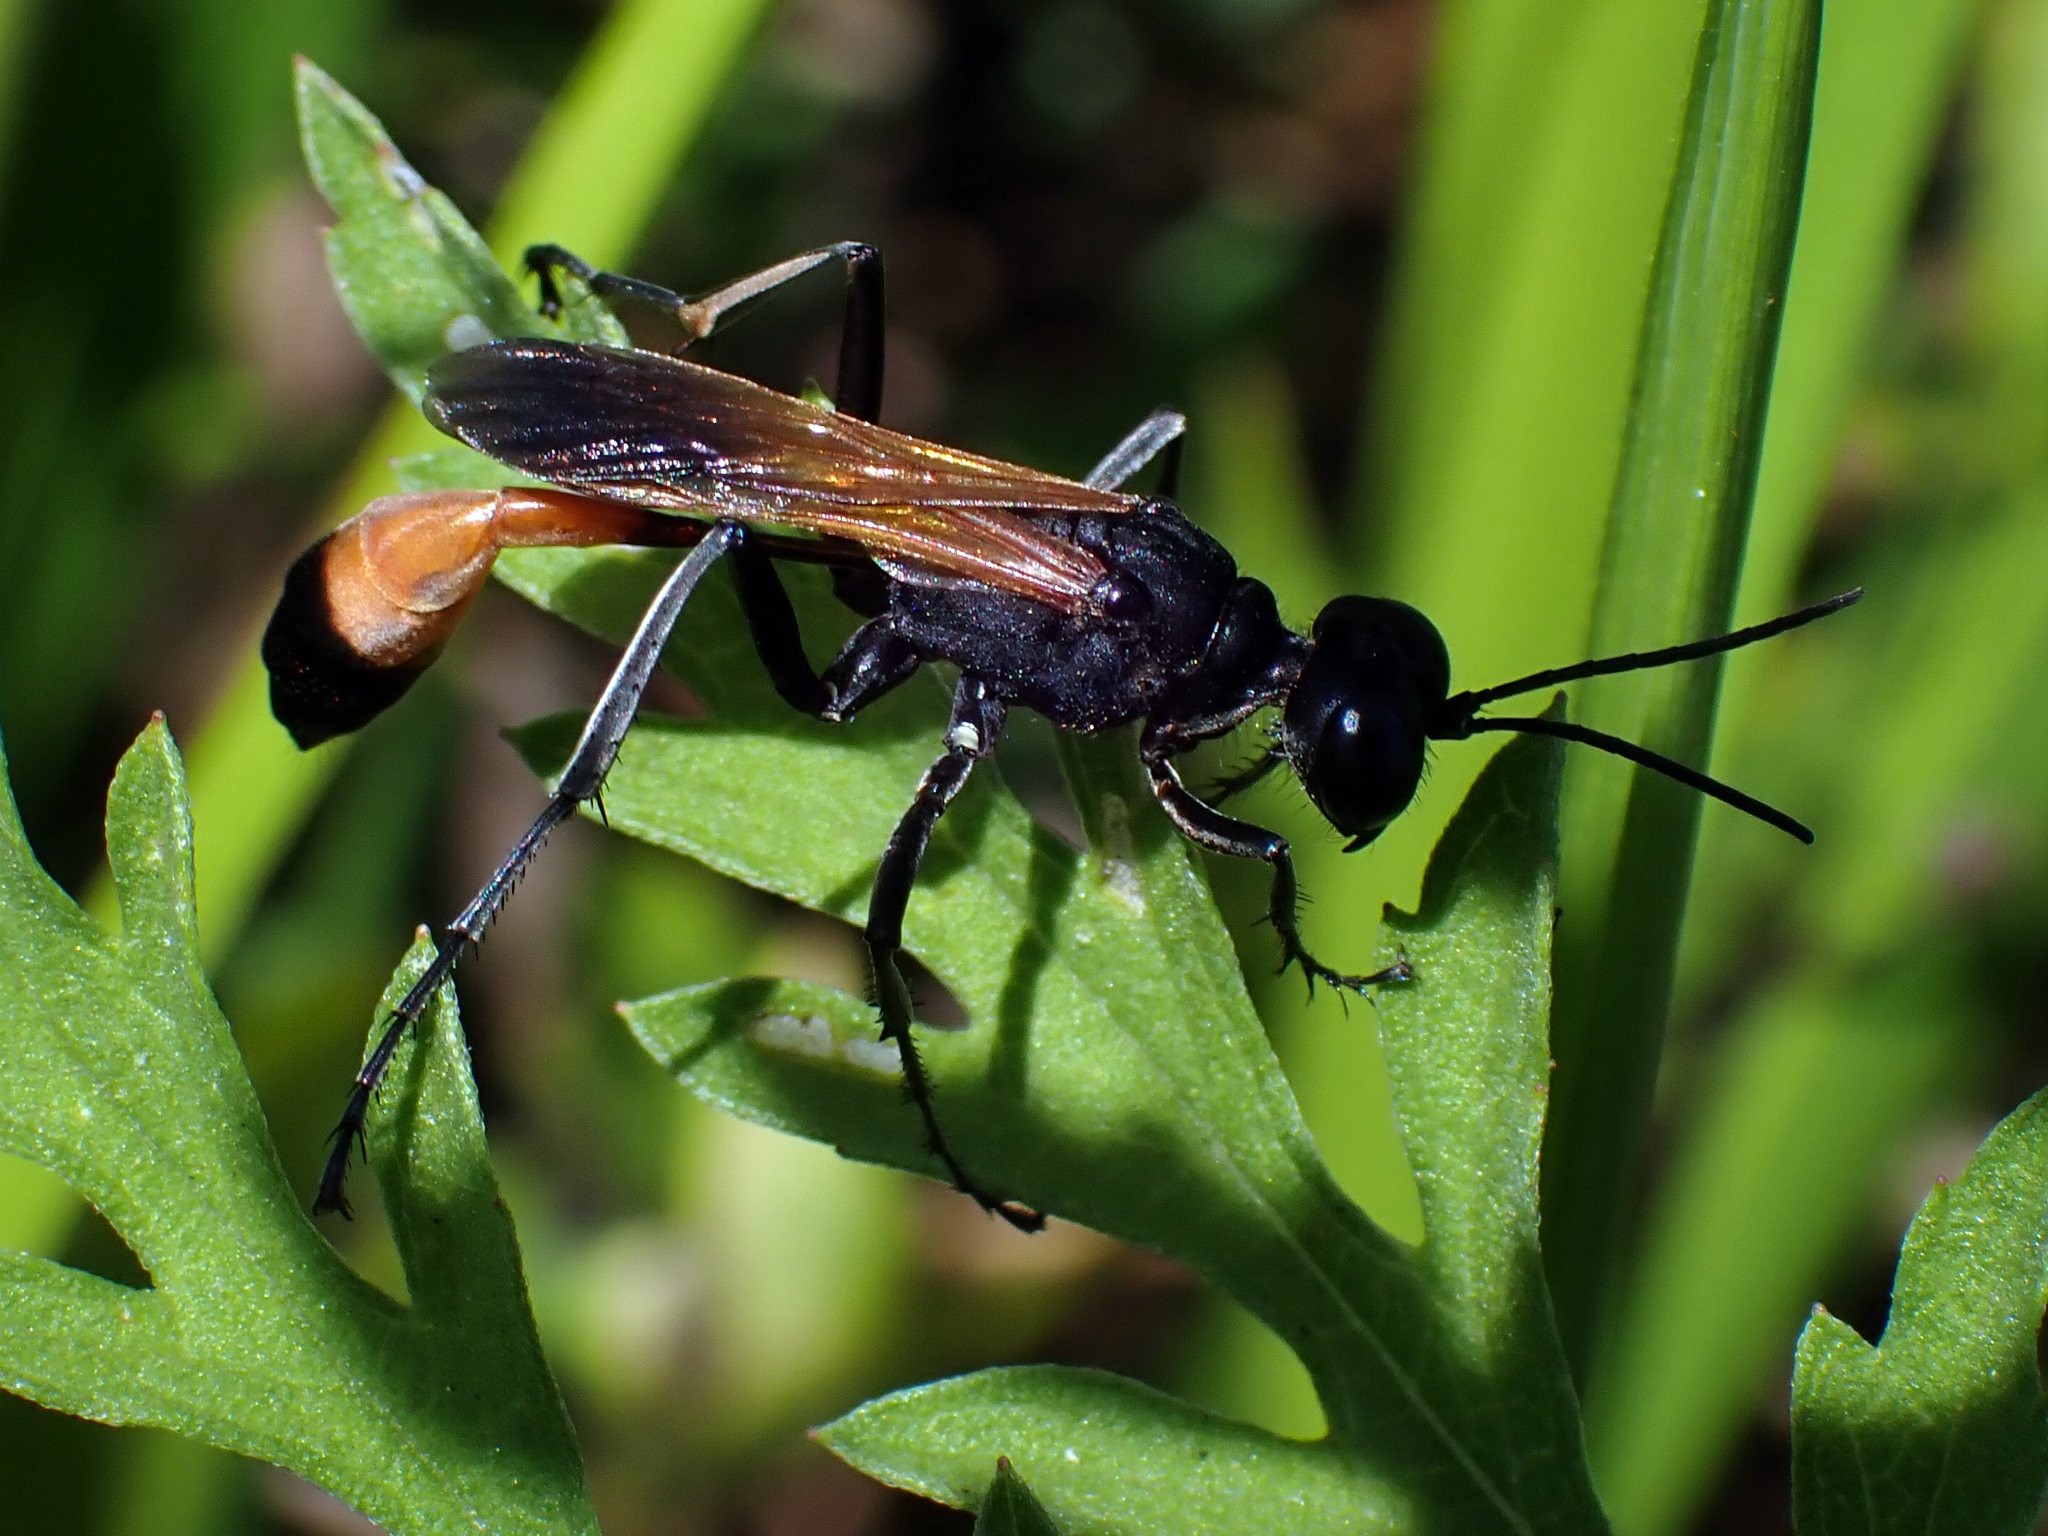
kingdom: Animalia
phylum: Arthropoda
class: Insecta
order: Hymenoptera
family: Sphecidae
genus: Ammophila
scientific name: Ammophila pictipennis
